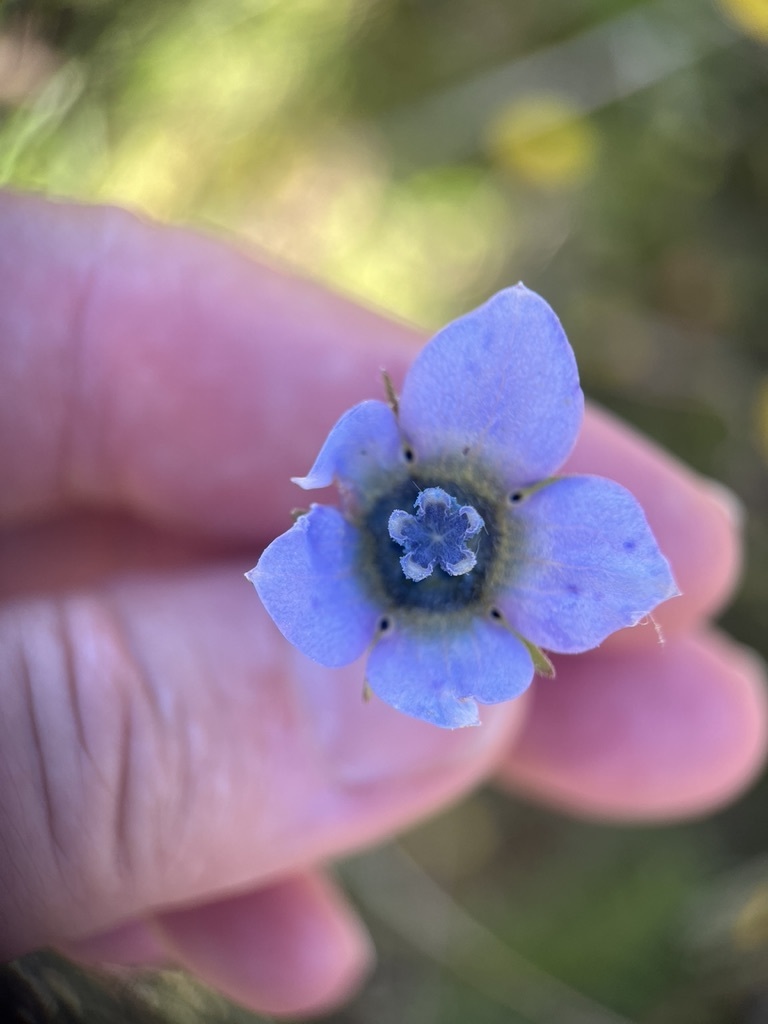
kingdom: Plantae
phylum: Tracheophyta
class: Magnoliopsida
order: Asterales
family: Campanulaceae
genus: Wahlenbergia
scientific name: Wahlenbergia capensis
